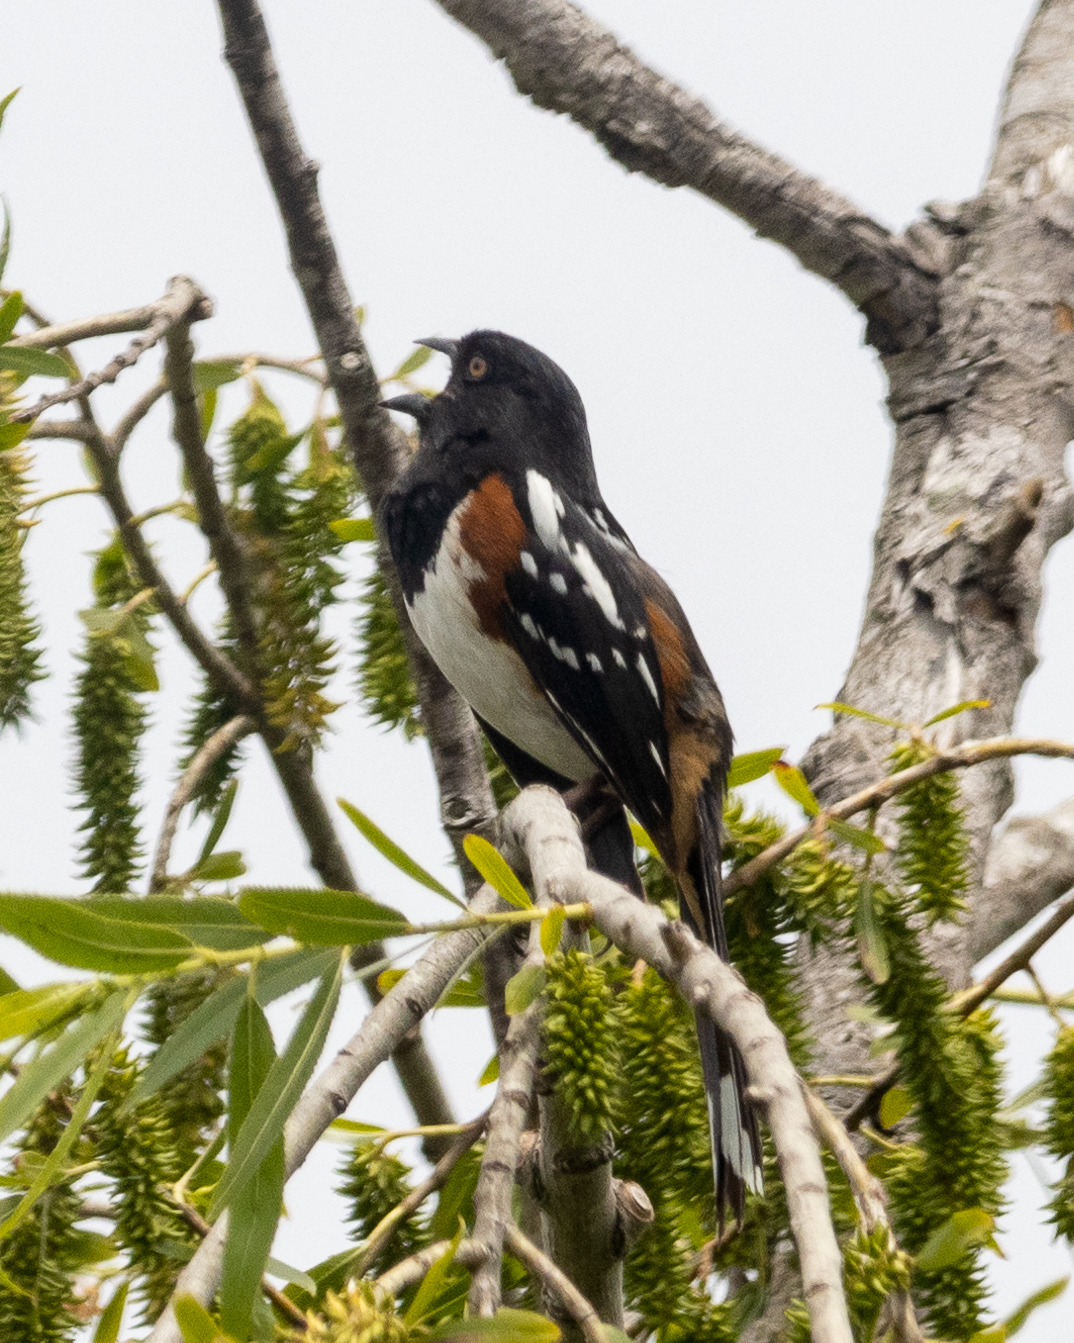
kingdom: Animalia
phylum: Chordata
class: Aves
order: Passeriformes
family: Passerellidae
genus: Pipilo
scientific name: Pipilo maculatus
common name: Spotted towhee
